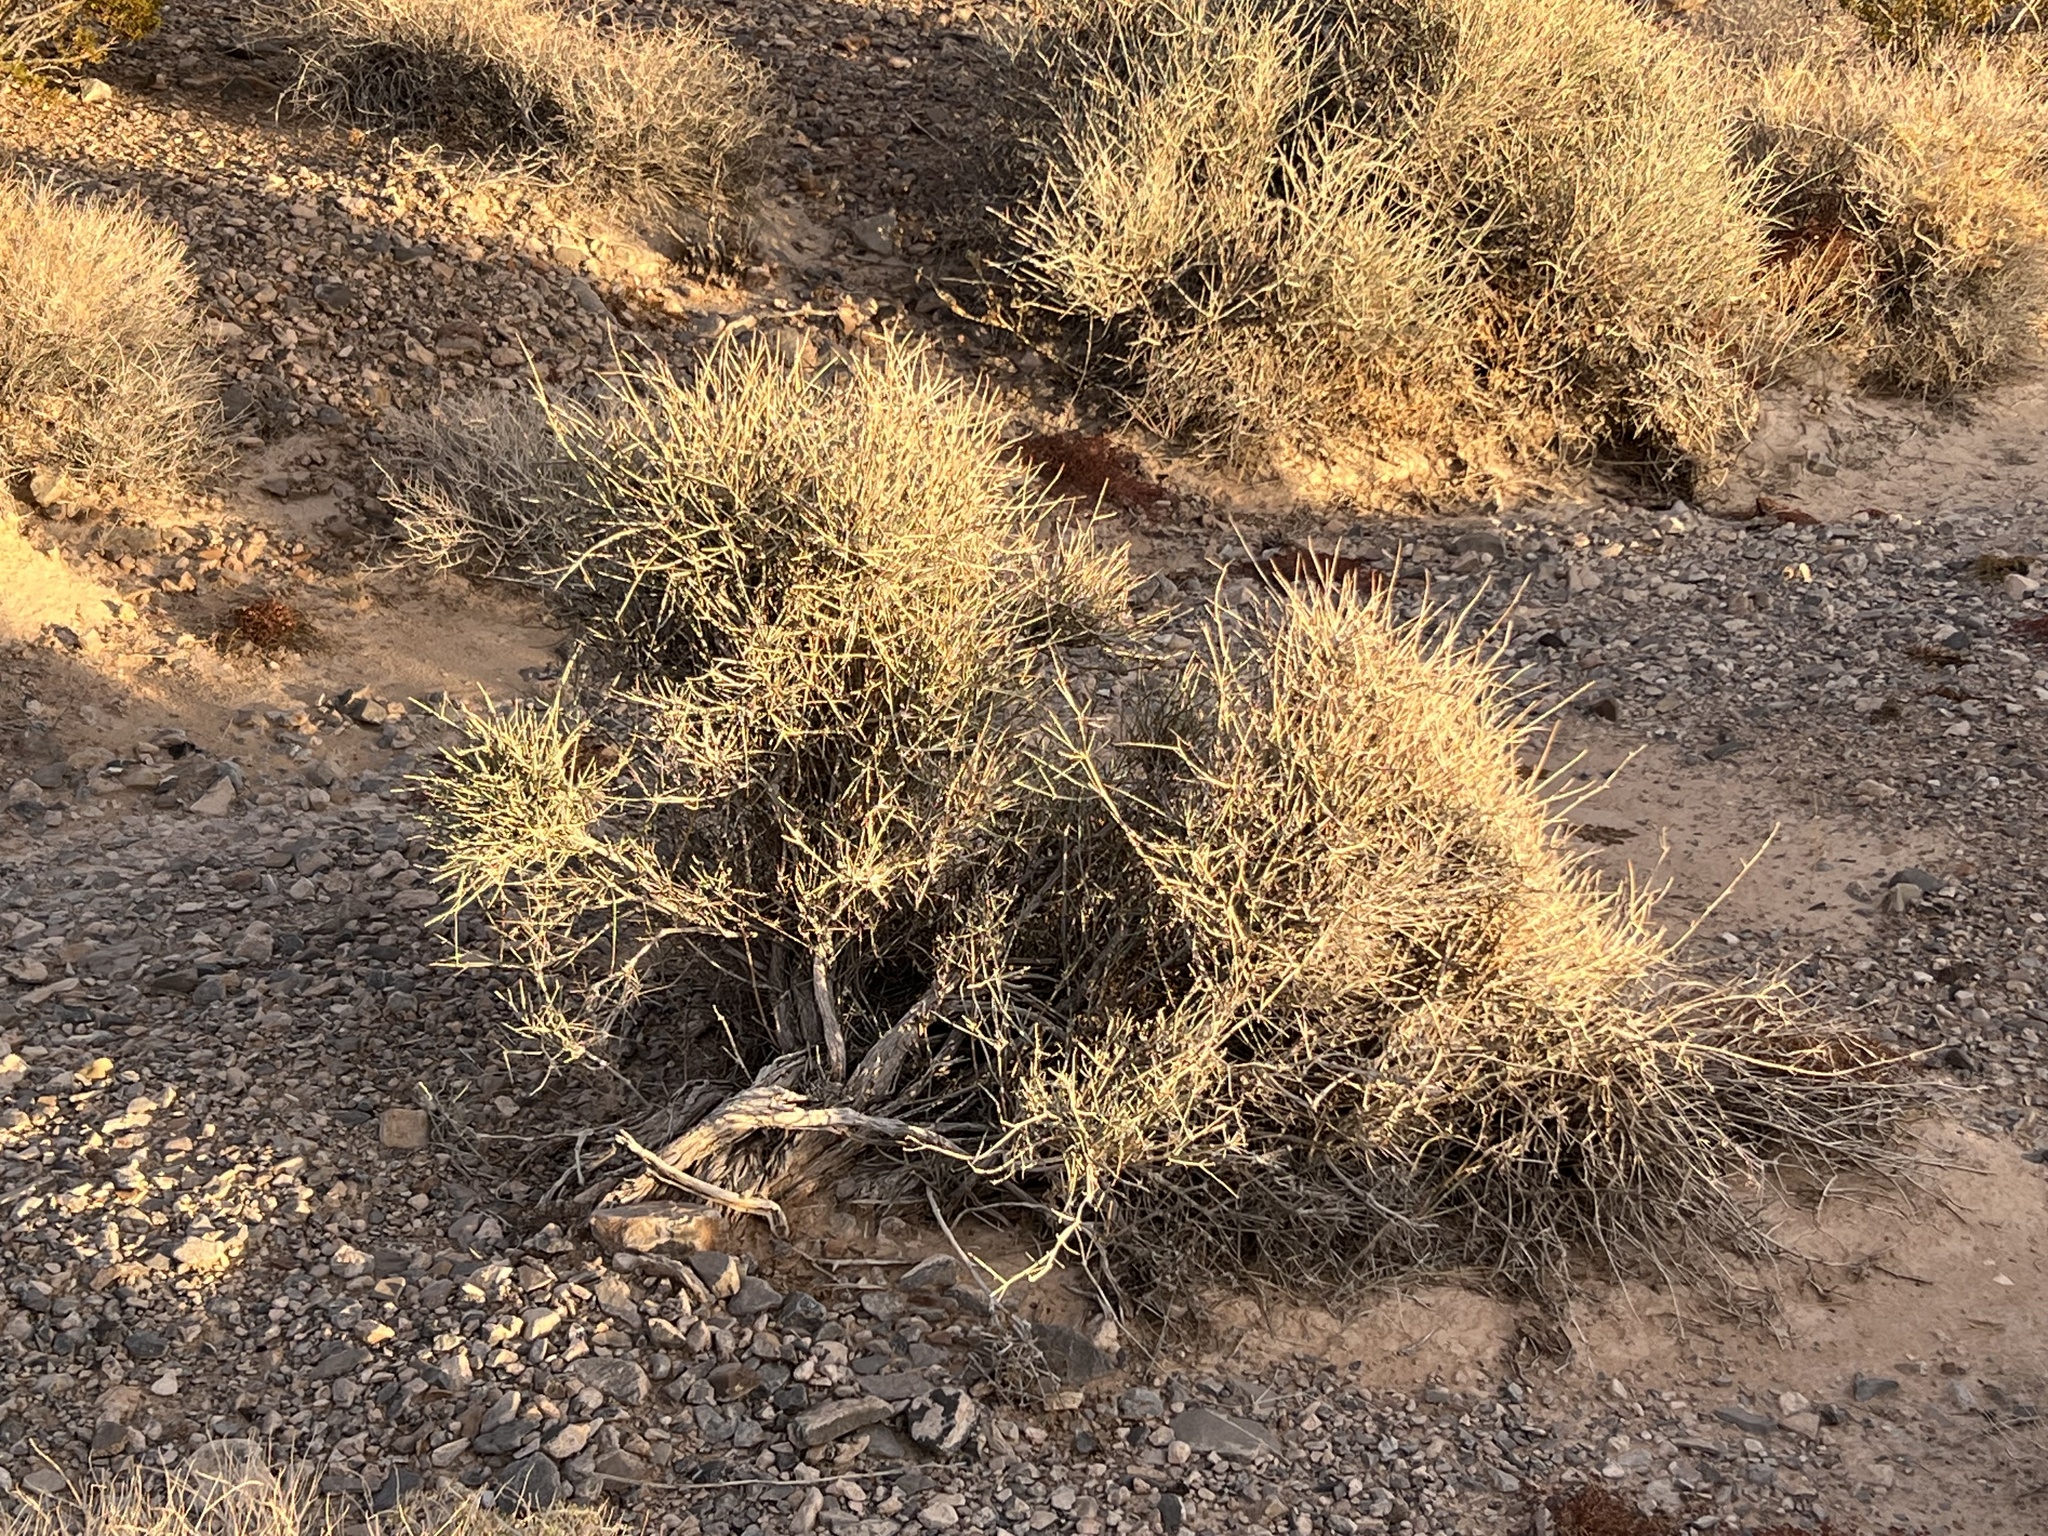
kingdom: Plantae
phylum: Tracheophyta
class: Gnetopsida
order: Ephedrales
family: Ephedraceae
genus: Ephedra
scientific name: Ephedra nevadensis
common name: Gray ephedra
